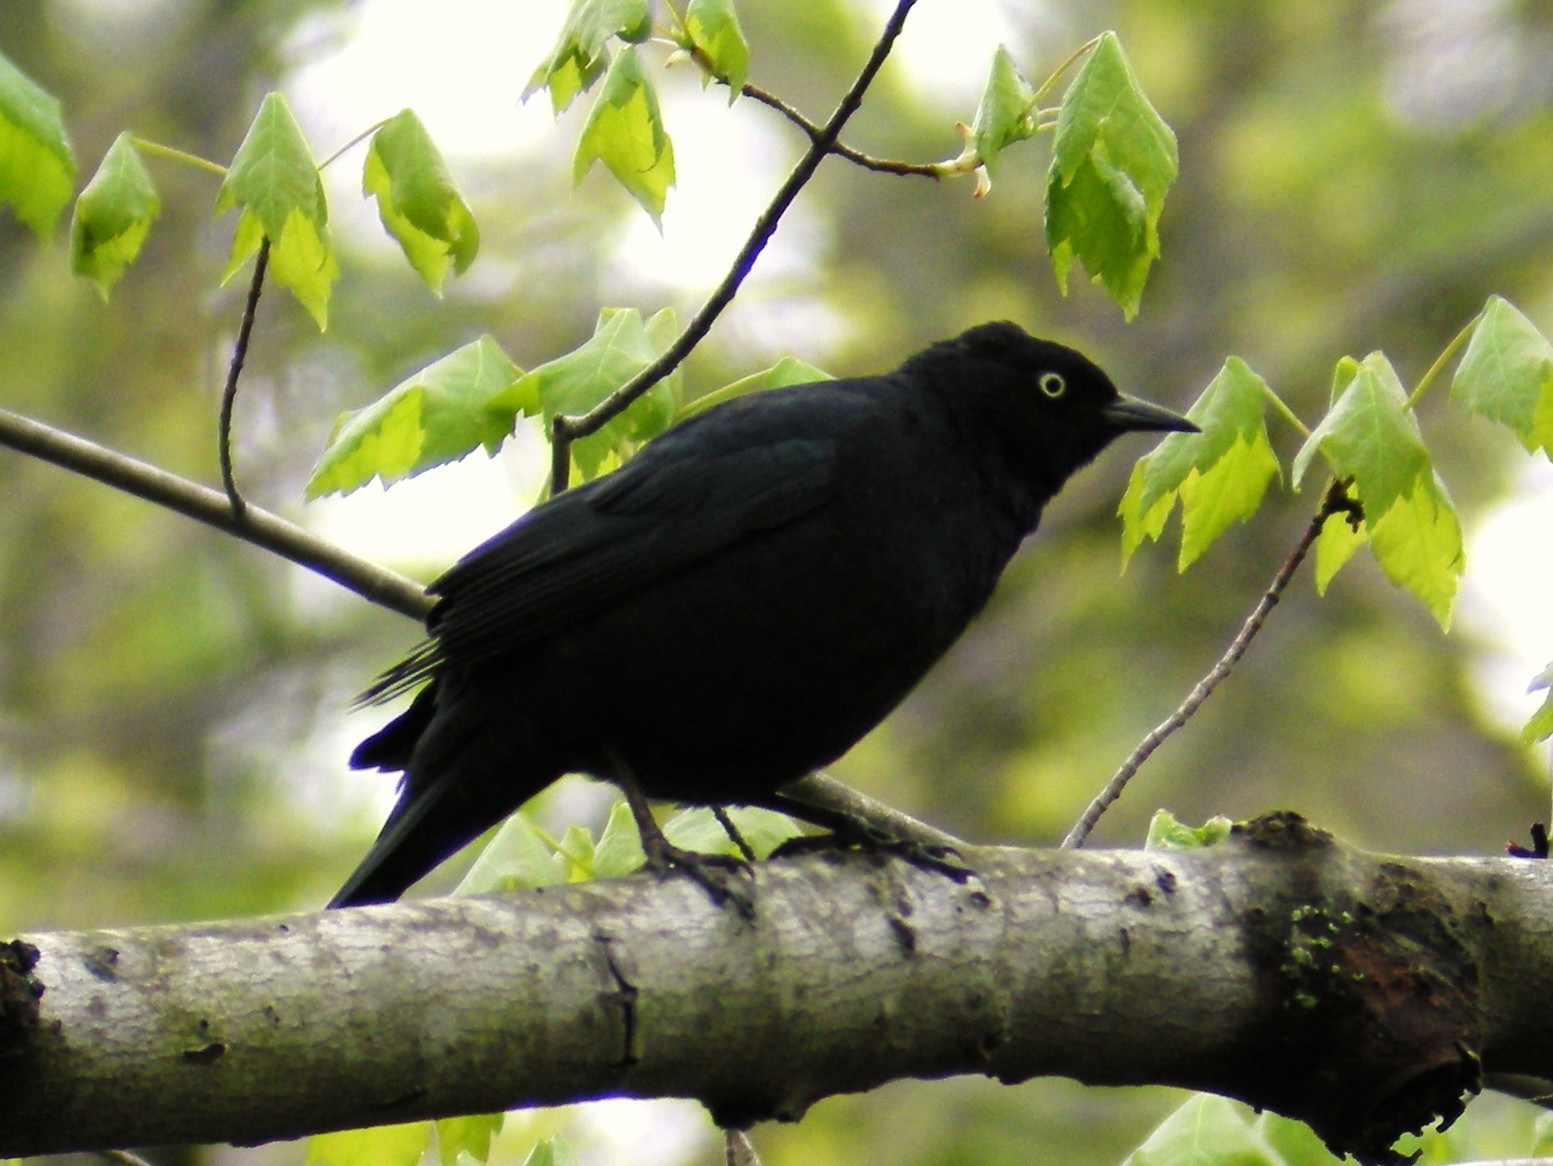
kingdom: Animalia
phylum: Chordata
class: Aves
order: Passeriformes
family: Icteridae
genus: Euphagus
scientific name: Euphagus carolinus
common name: Rusty blackbird
